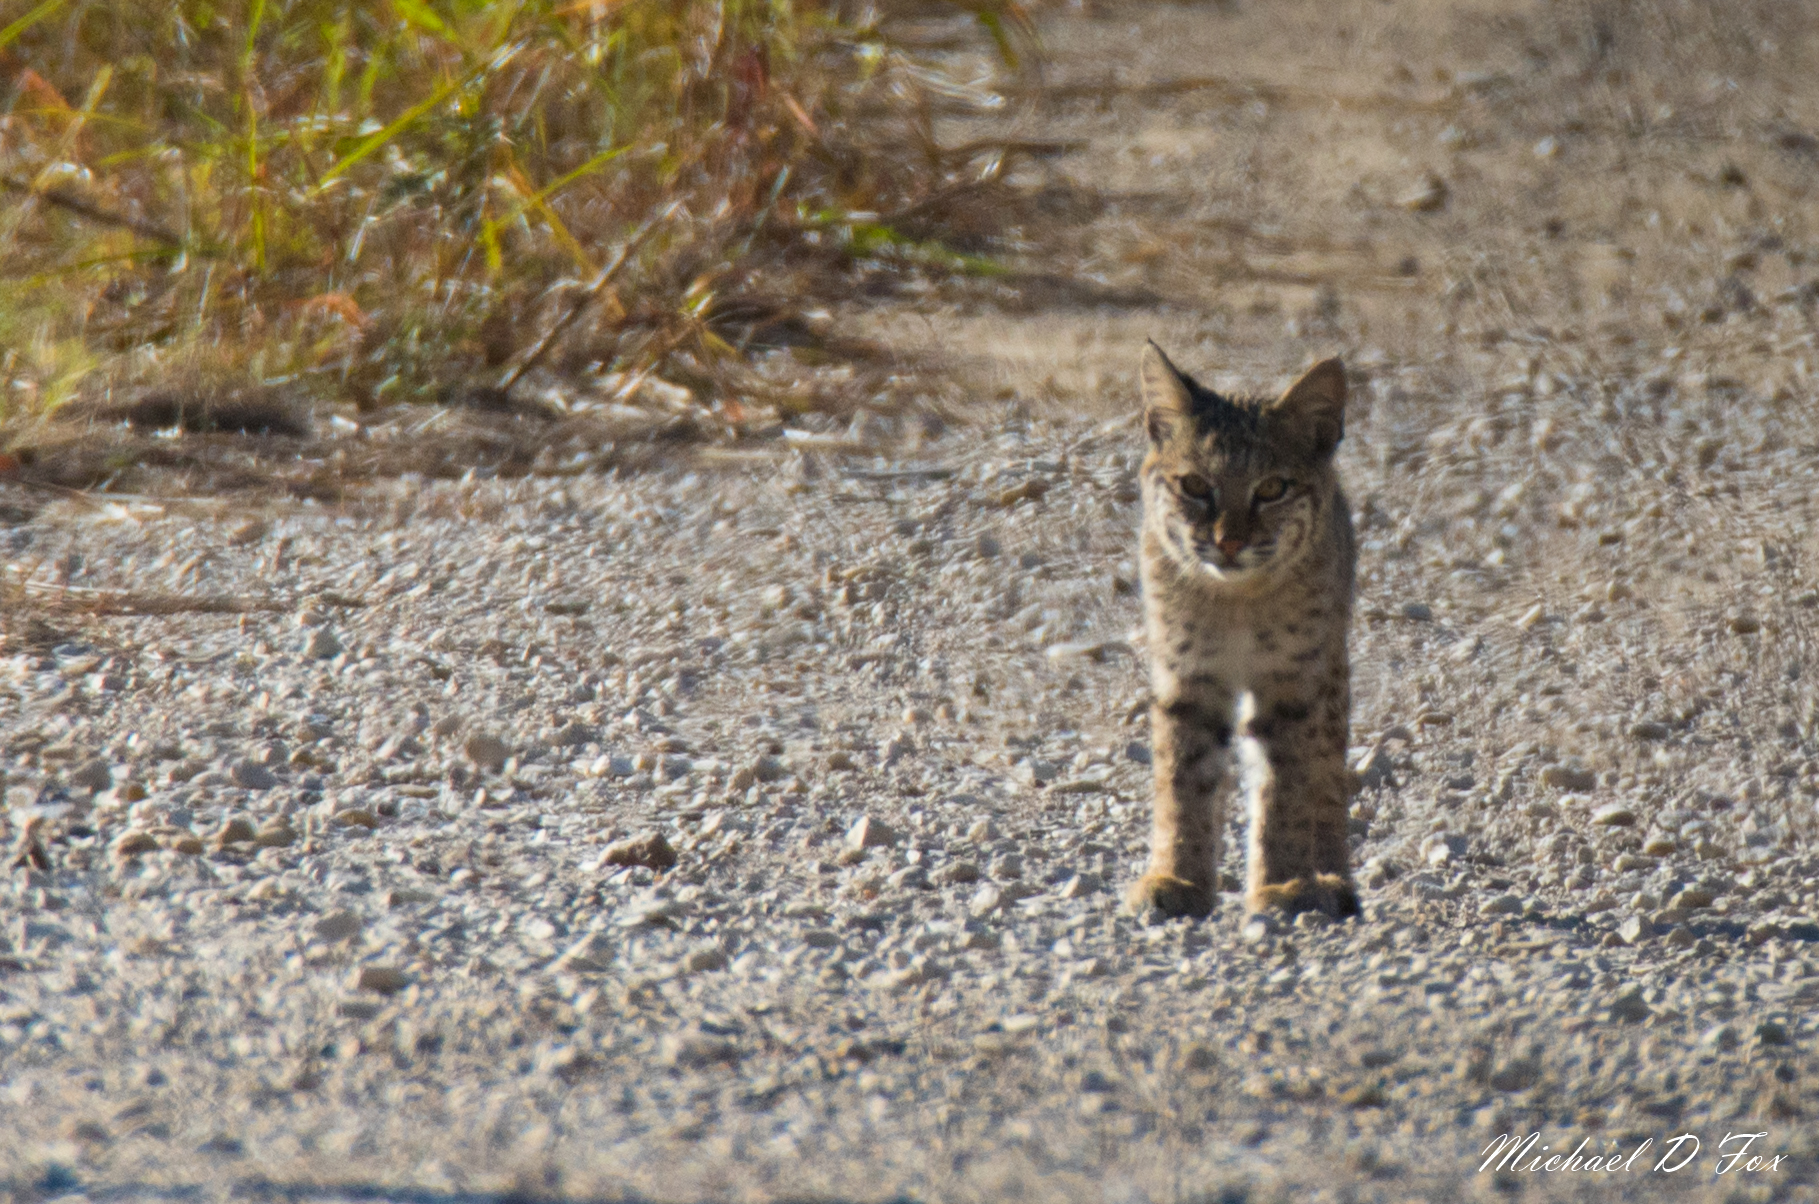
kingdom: Animalia
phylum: Chordata
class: Mammalia
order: Carnivora
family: Felidae
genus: Lynx
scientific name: Lynx rufus
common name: Bobcat
